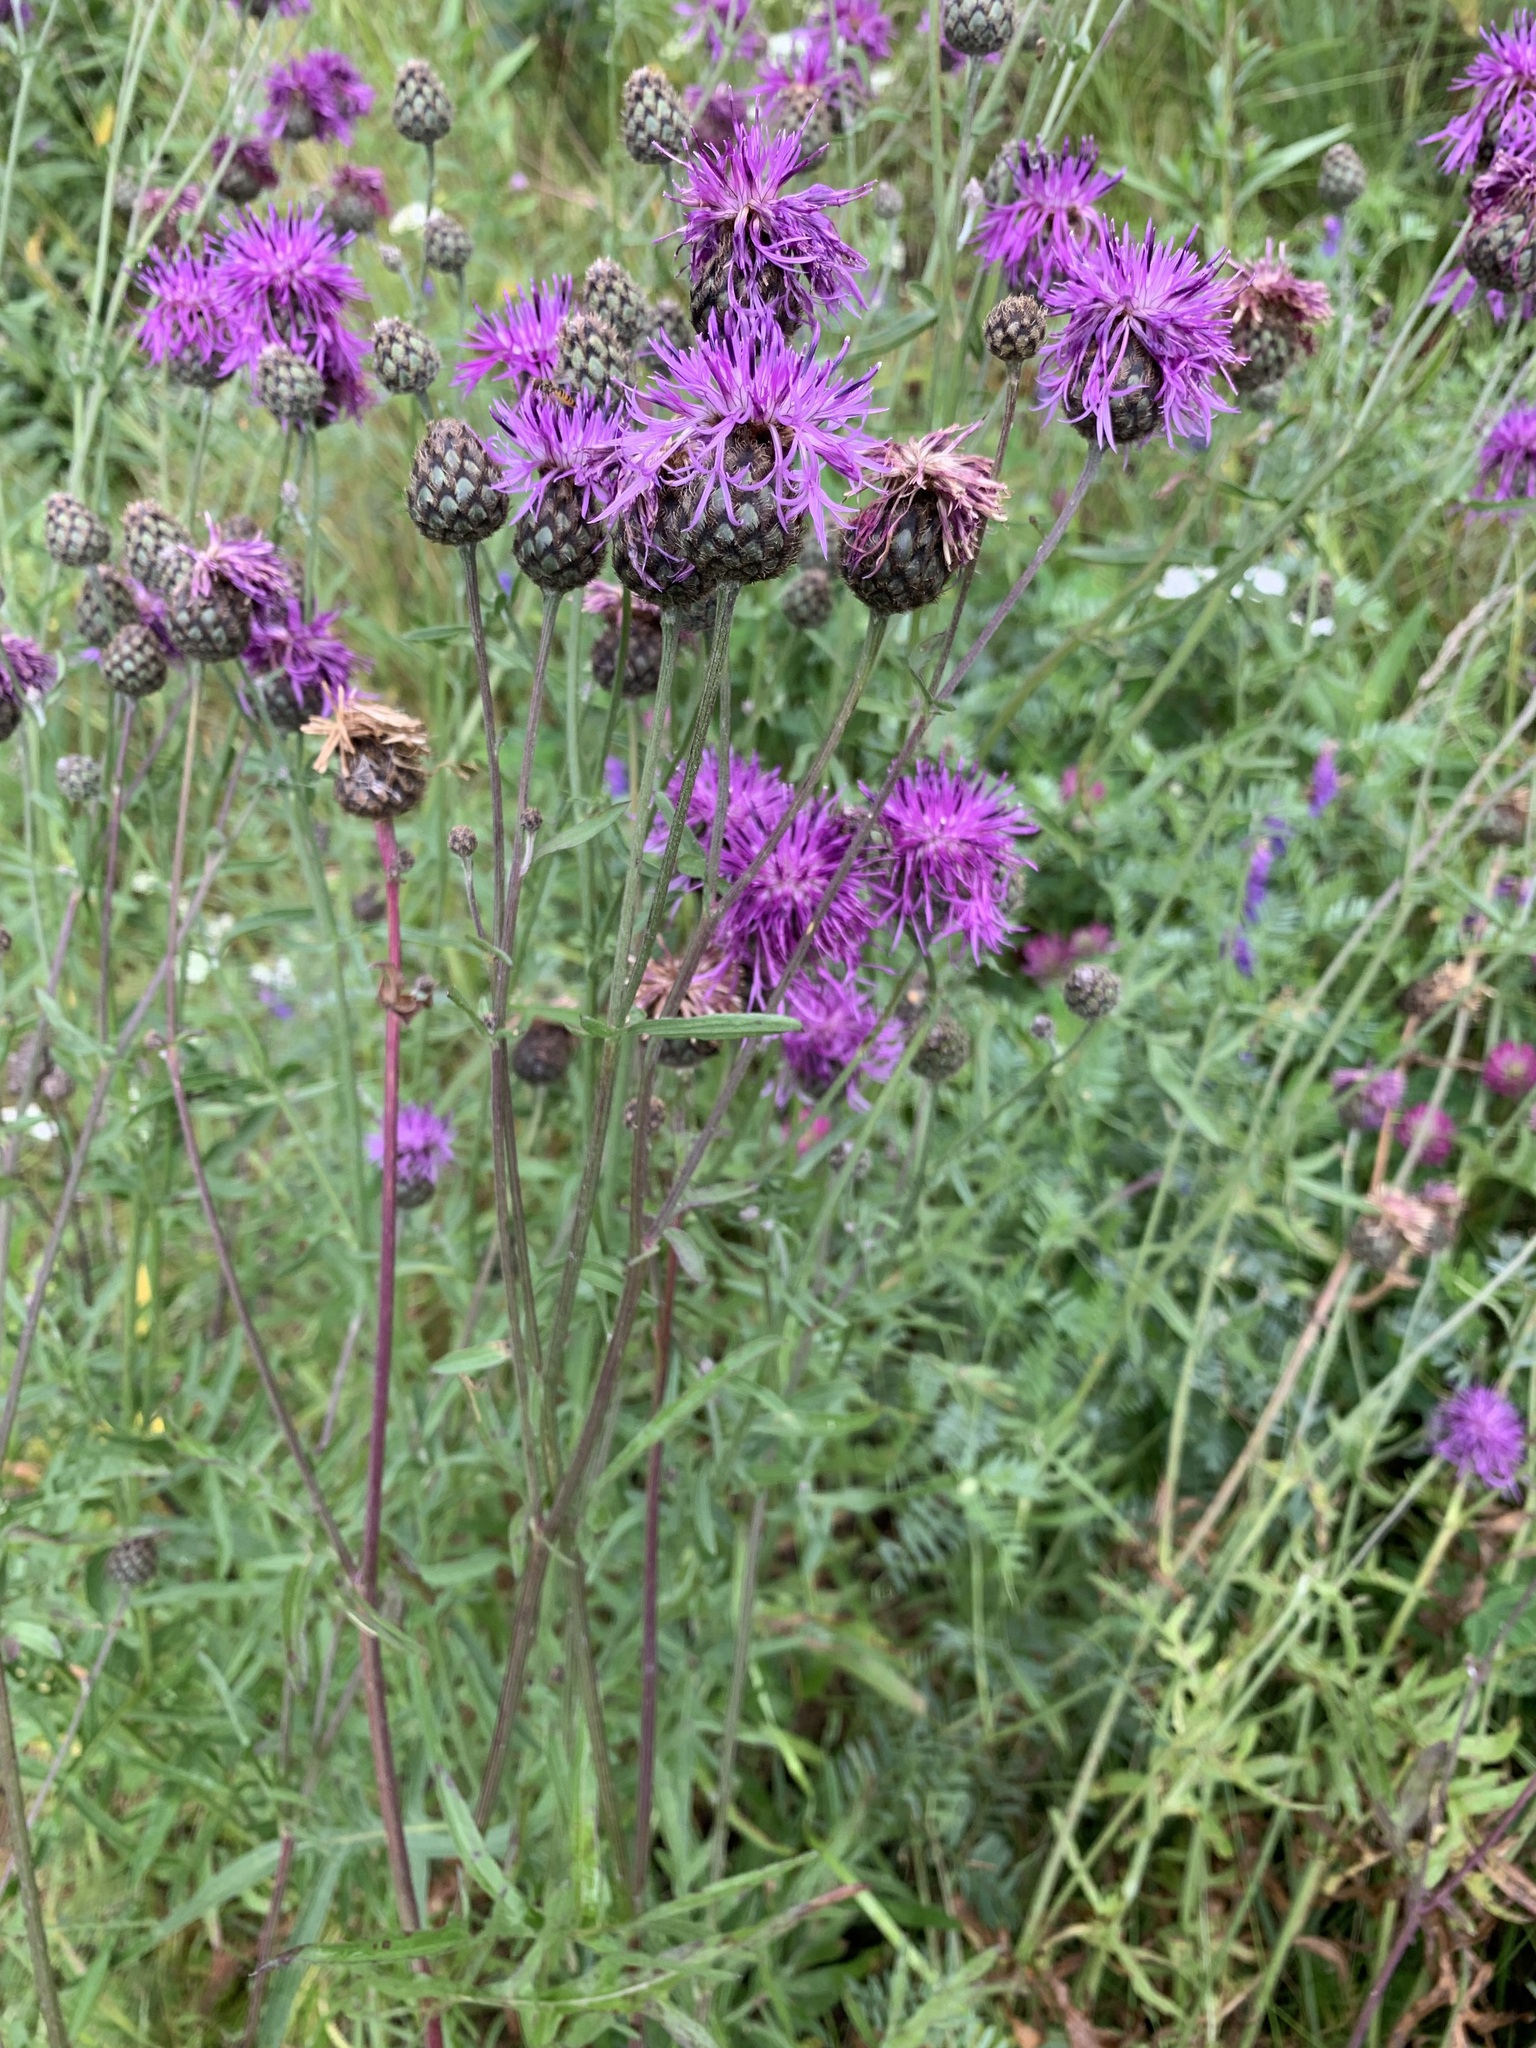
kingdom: Plantae
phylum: Tracheophyta
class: Magnoliopsida
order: Asterales
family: Asteraceae
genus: Centaurea
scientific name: Centaurea scabiosa
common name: Greater knapweed
